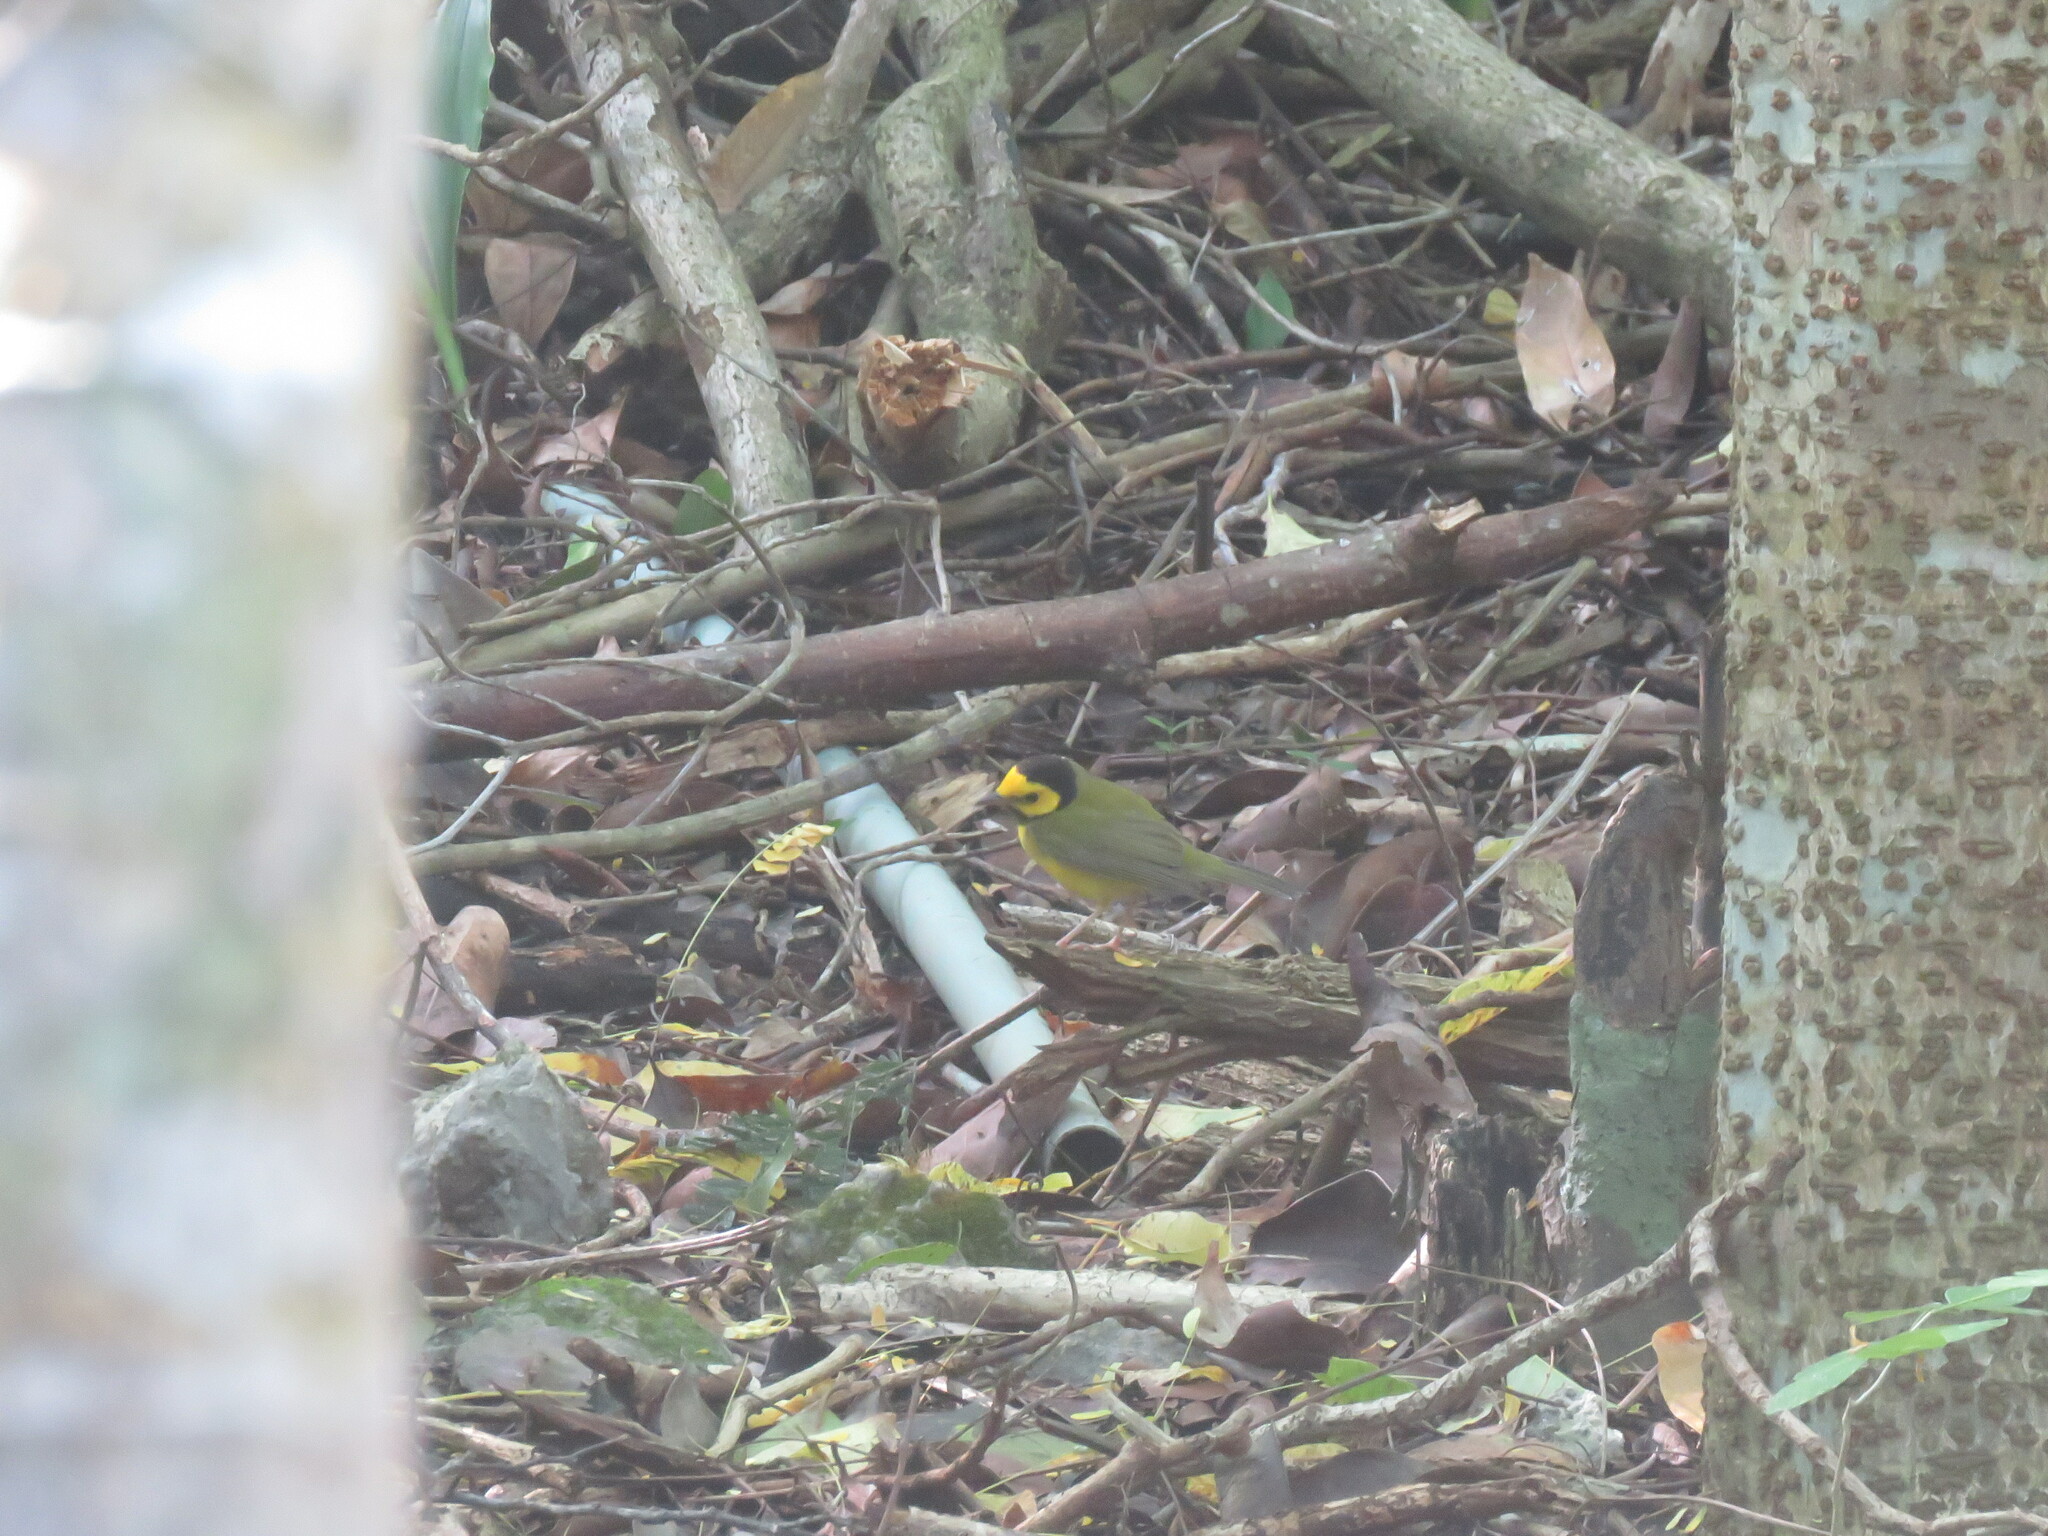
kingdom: Animalia
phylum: Chordata
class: Aves
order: Passeriformes
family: Parulidae
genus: Setophaga
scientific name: Setophaga citrina
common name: Hooded warbler
